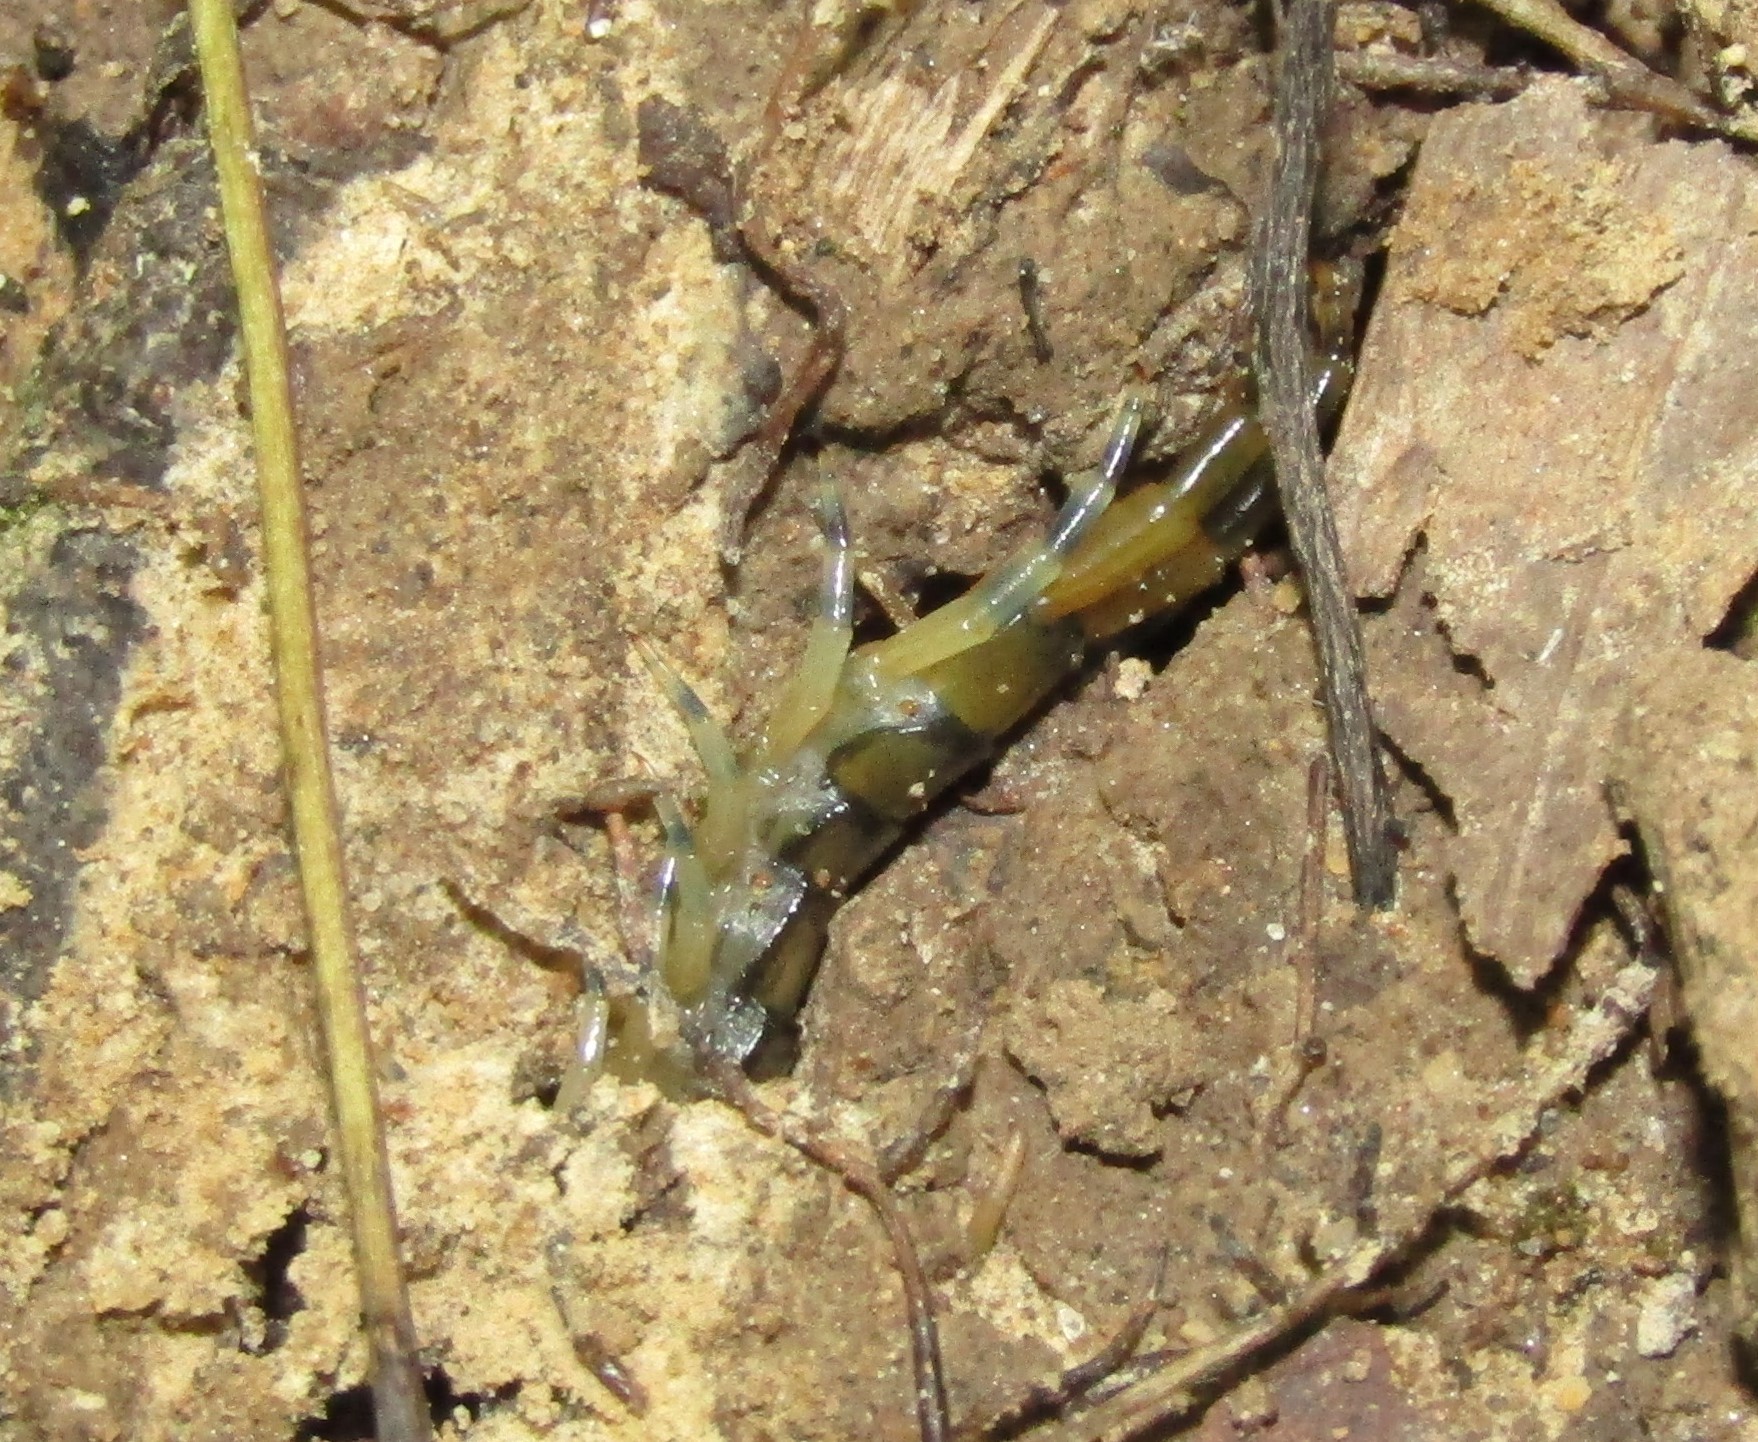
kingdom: Animalia
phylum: Arthropoda
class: Chilopoda
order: Scolopendromorpha
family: Scolopendridae
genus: Hemiscolopendra
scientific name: Hemiscolopendra marginata
